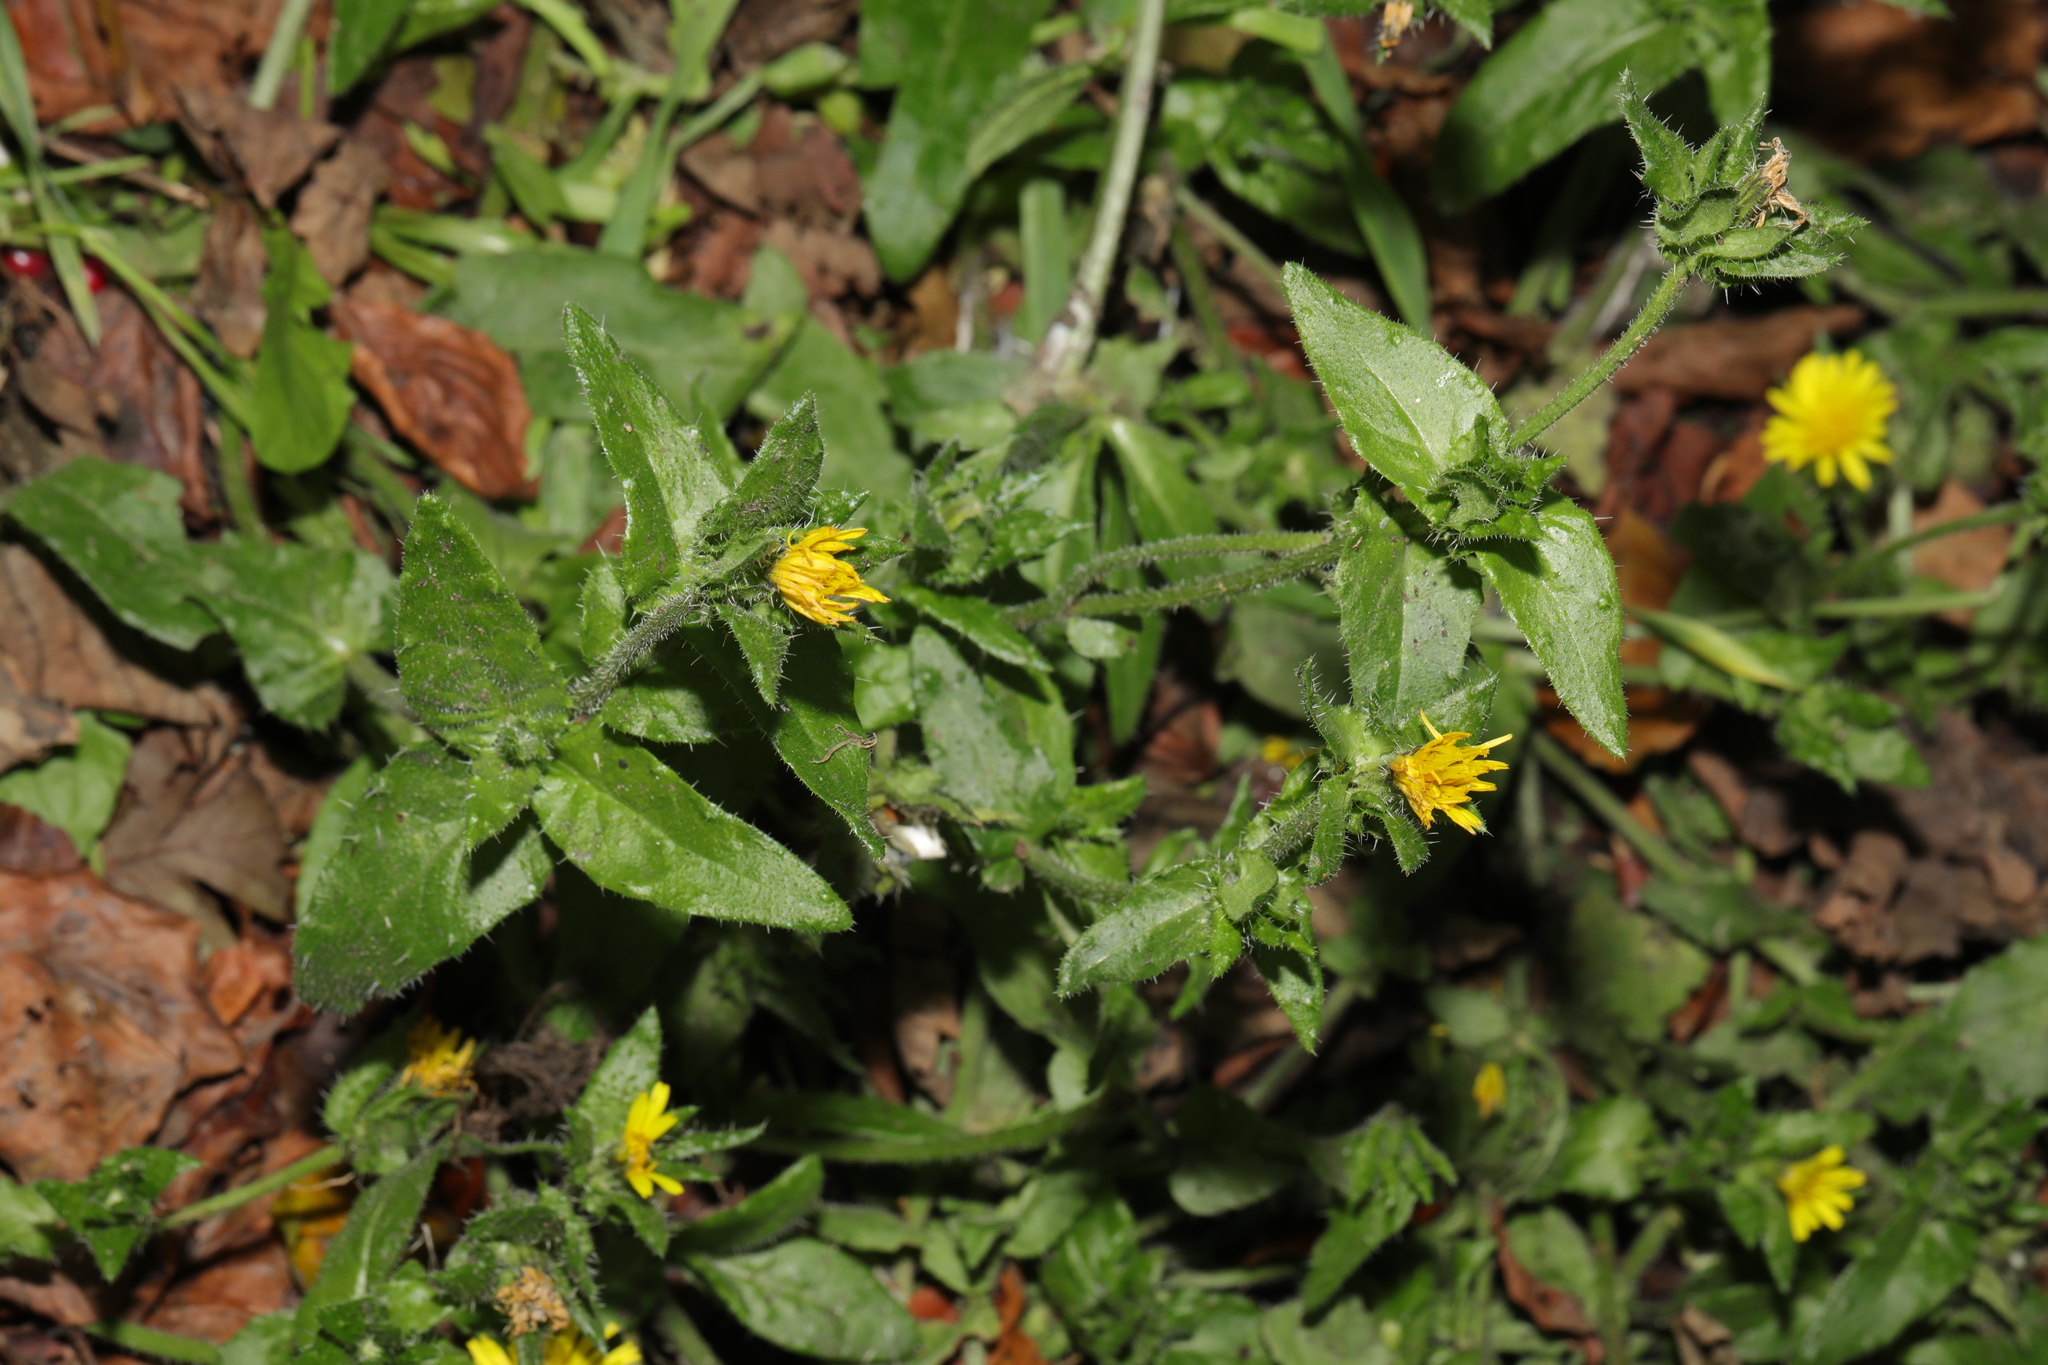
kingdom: Plantae
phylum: Tracheophyta
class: Magnoliopsida
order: Asterales
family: Asteraceae
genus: Helminthotheca
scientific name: Helminthotheca echioides
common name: Ox-tongue
